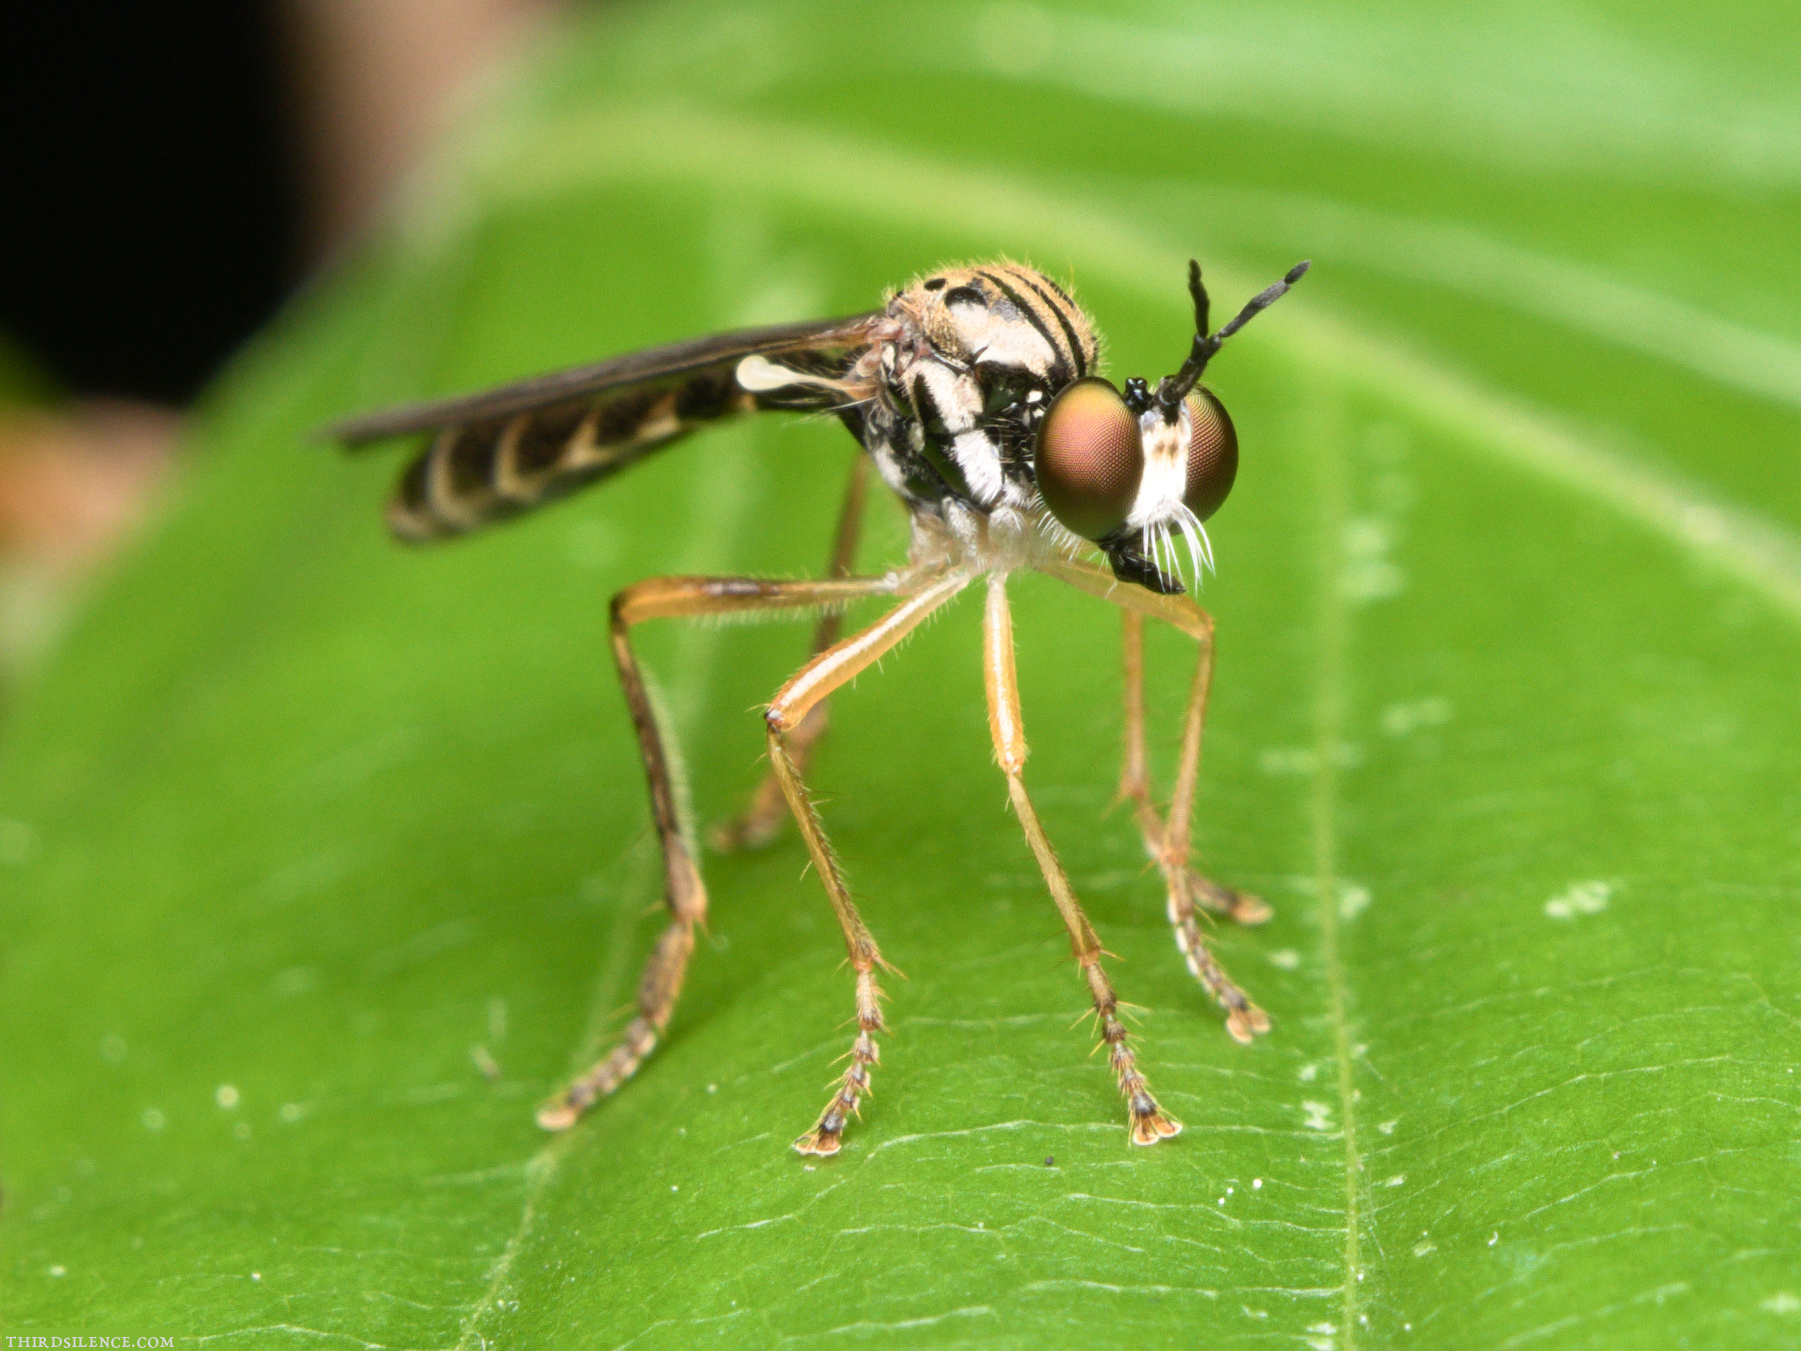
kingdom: Animalia
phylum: Arthropoda
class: Insecta
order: Diptera
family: Asilidae
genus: Dioctria
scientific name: Dioctria linearis
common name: Small yellow-legged robberfly
